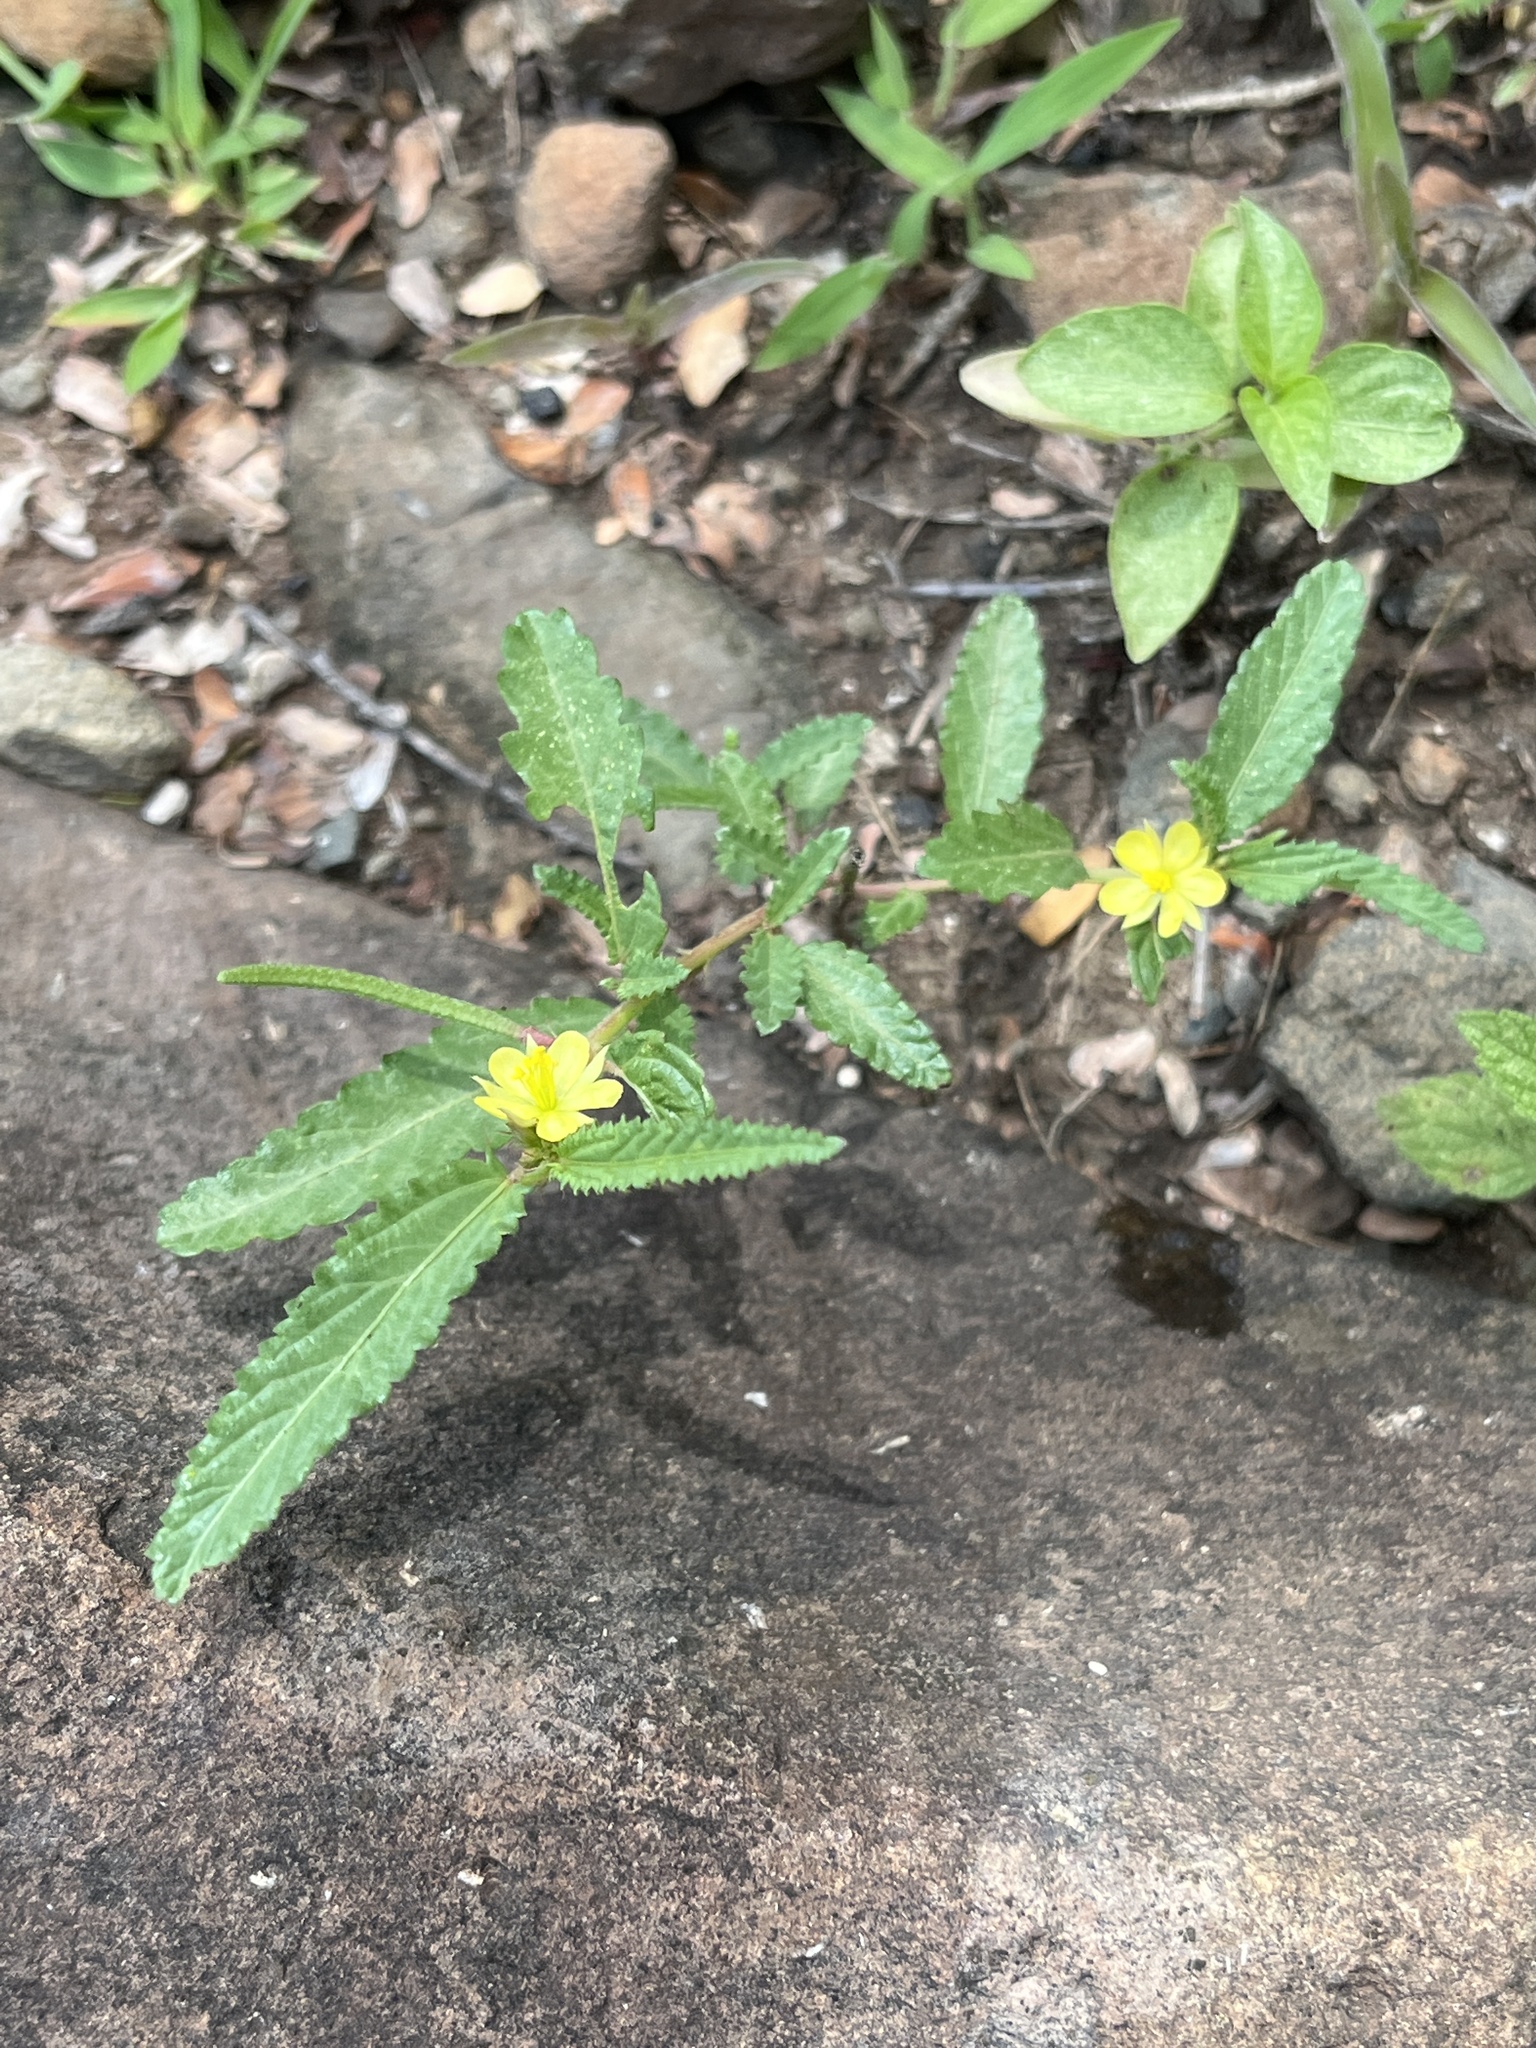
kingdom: Plantae
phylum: Tracheophyta
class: Magnoliopsida
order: Malvales
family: Malvaceae
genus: Corchorus
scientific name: Corchorus trilocularis
